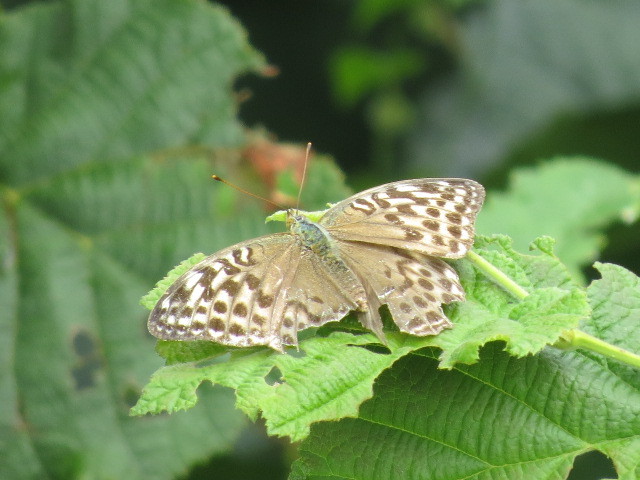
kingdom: Animalia
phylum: Arthropoda
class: Insecta
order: Lepidoptera
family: Nymphalidae
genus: Argynnis
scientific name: Argynnis paphia
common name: Silver-washed fritillary
